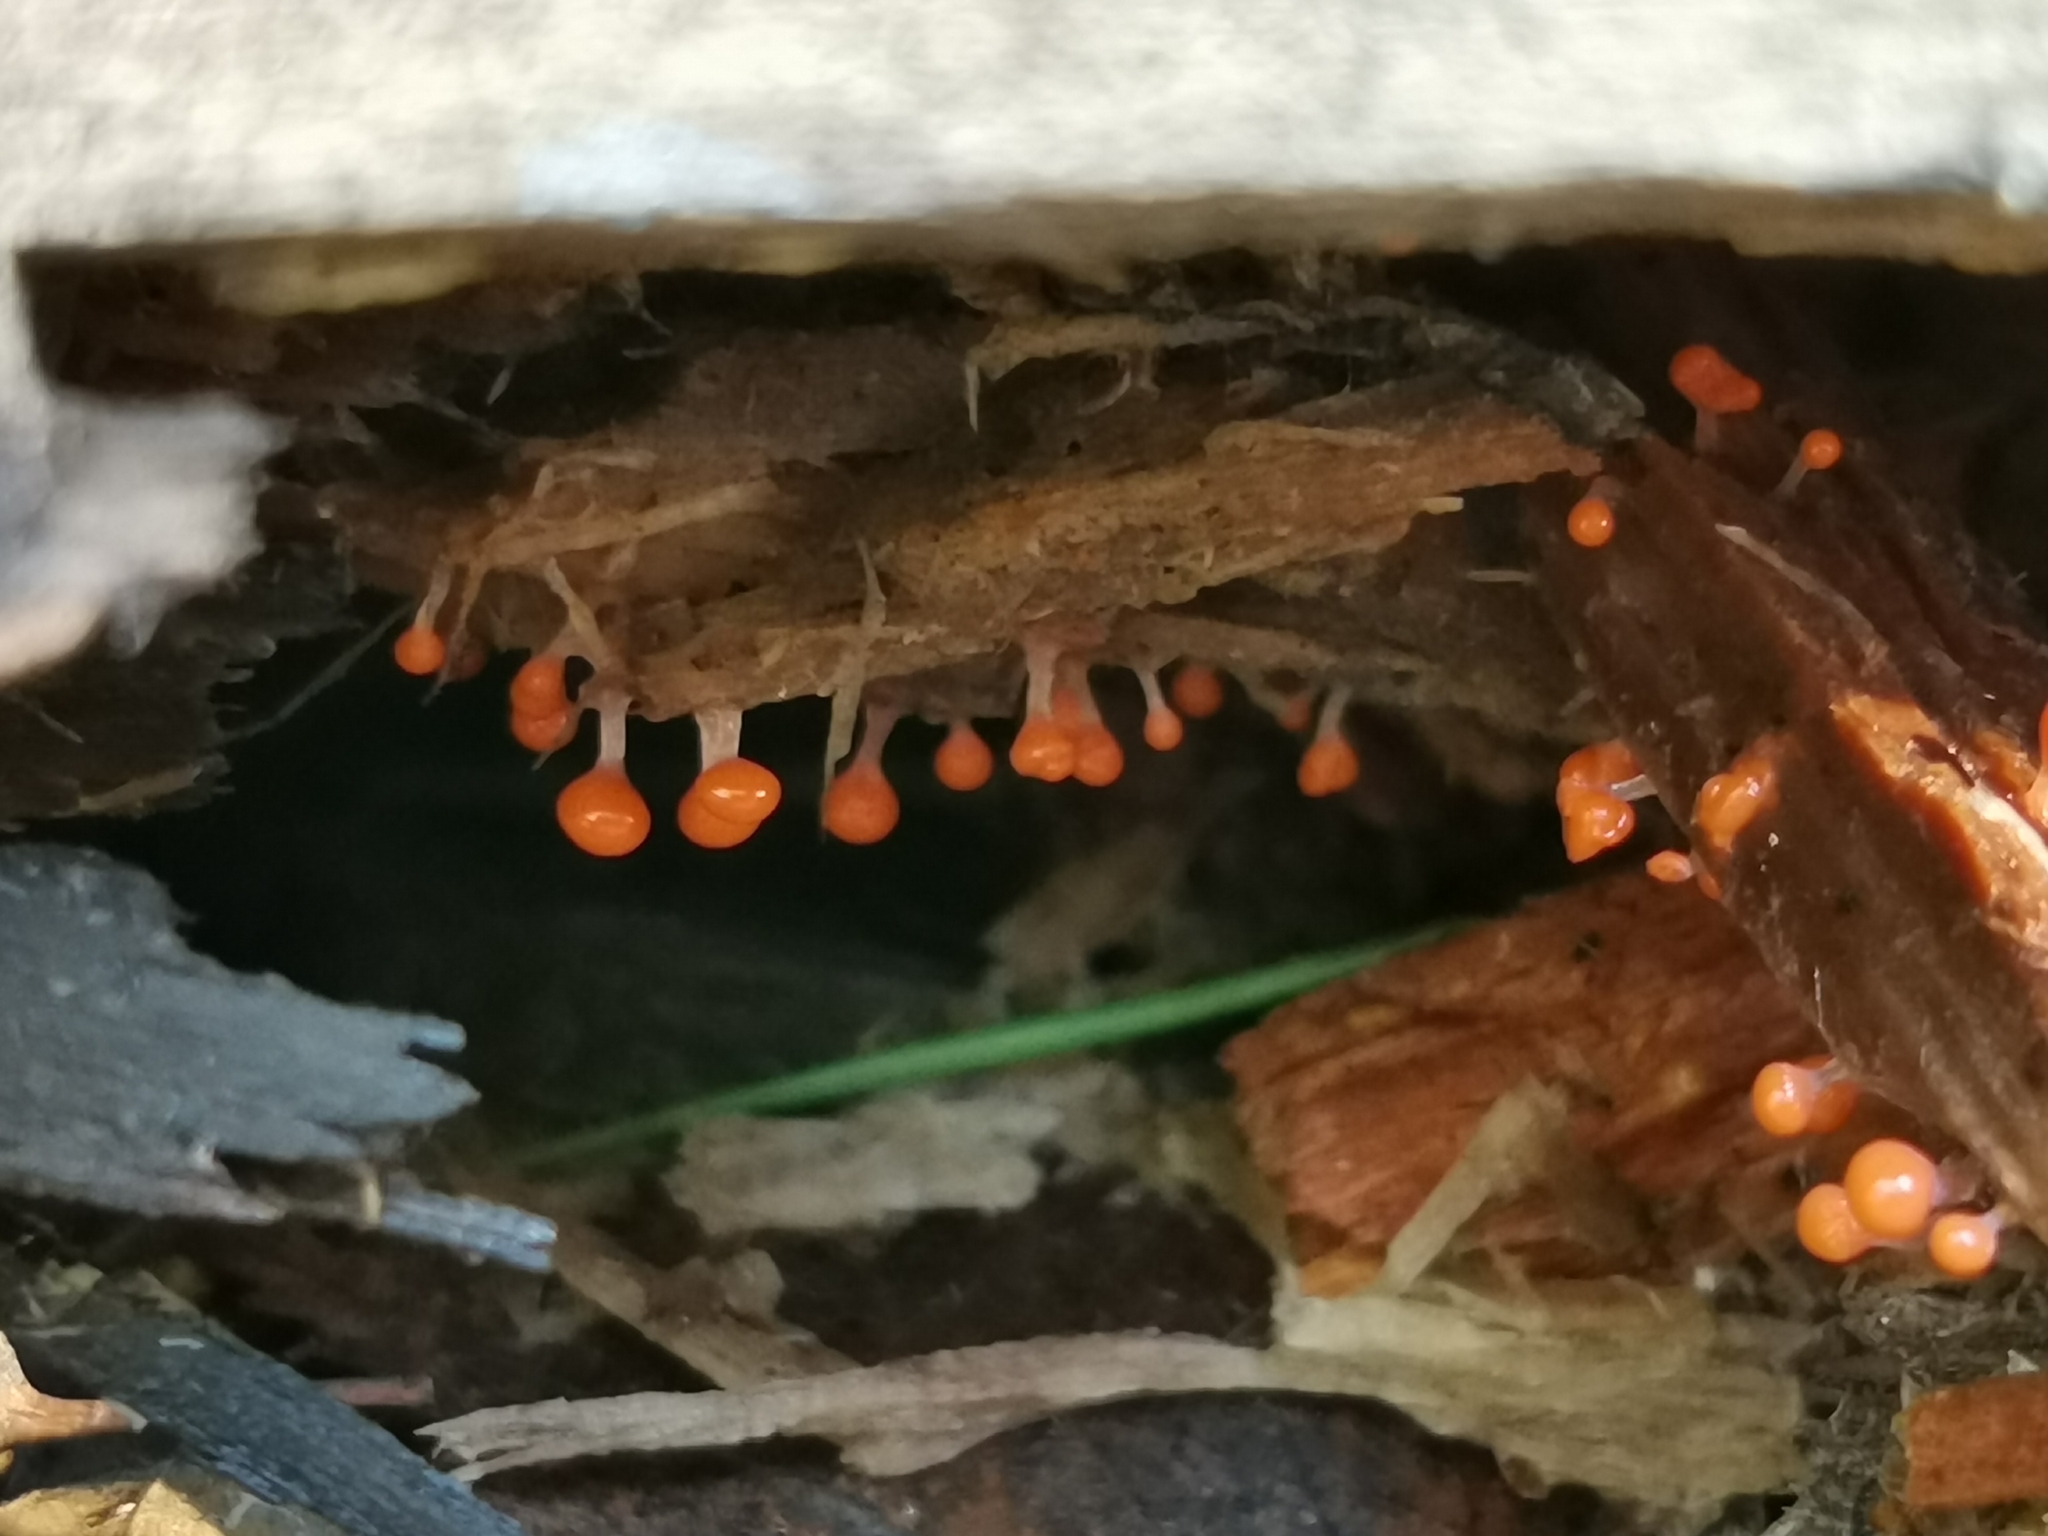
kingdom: Protozoa
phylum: Mycetozoa
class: Myxomycetes
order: Trichiales
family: Arcyriaceae
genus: Hemitrichia
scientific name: Hemitrichia decipiens
